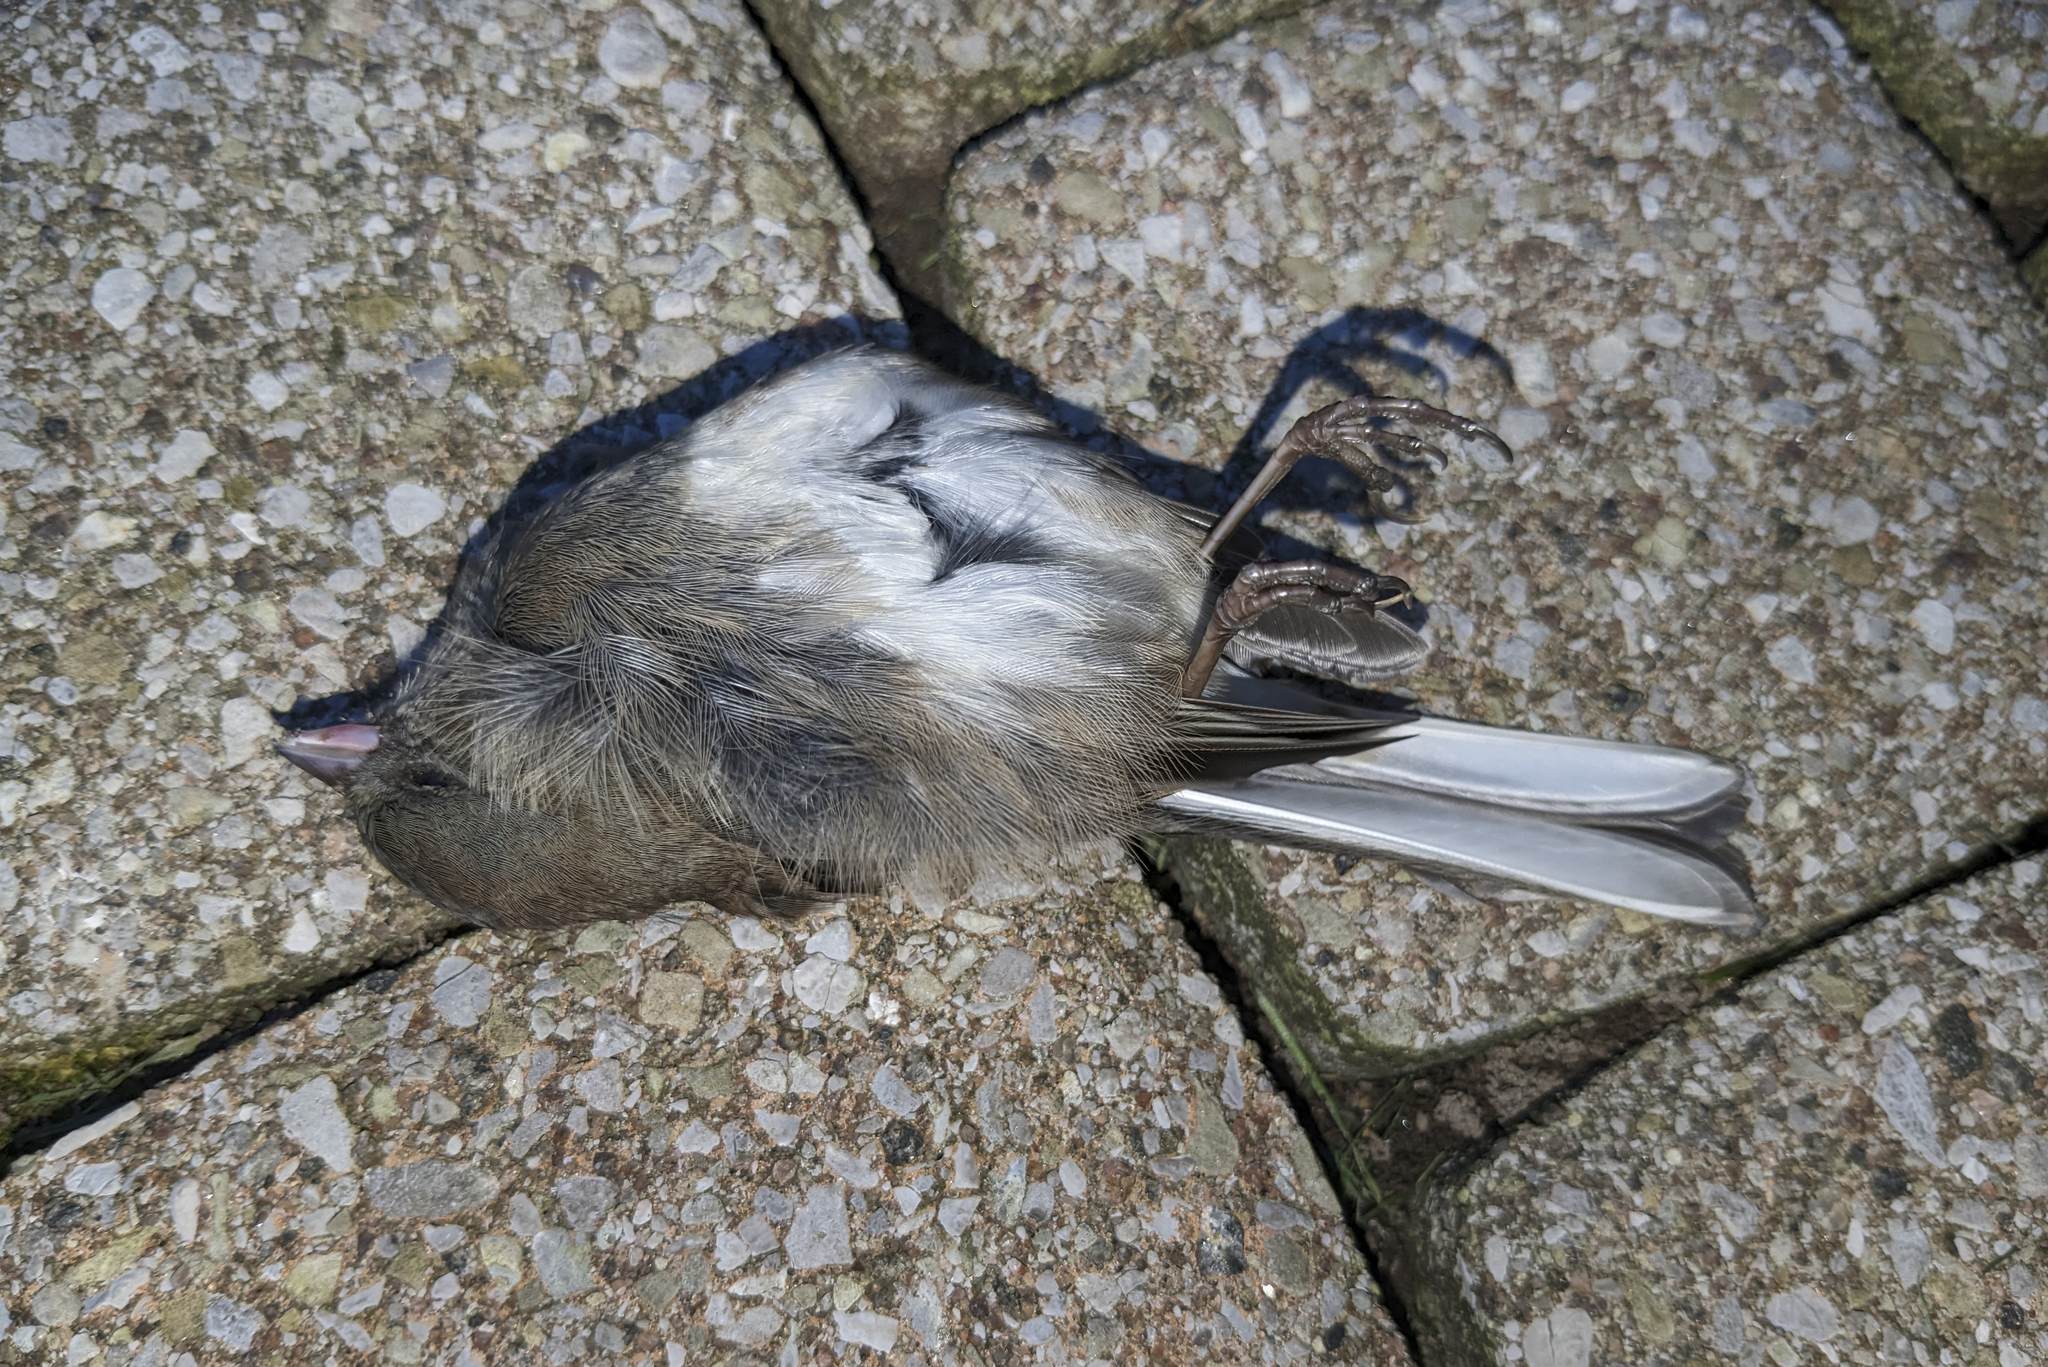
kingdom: Animalia
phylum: Chordata
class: Aves
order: Passeriformes
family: Passerellidae
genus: Junco
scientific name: Junco hyemalis
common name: Dark-eyed junco
